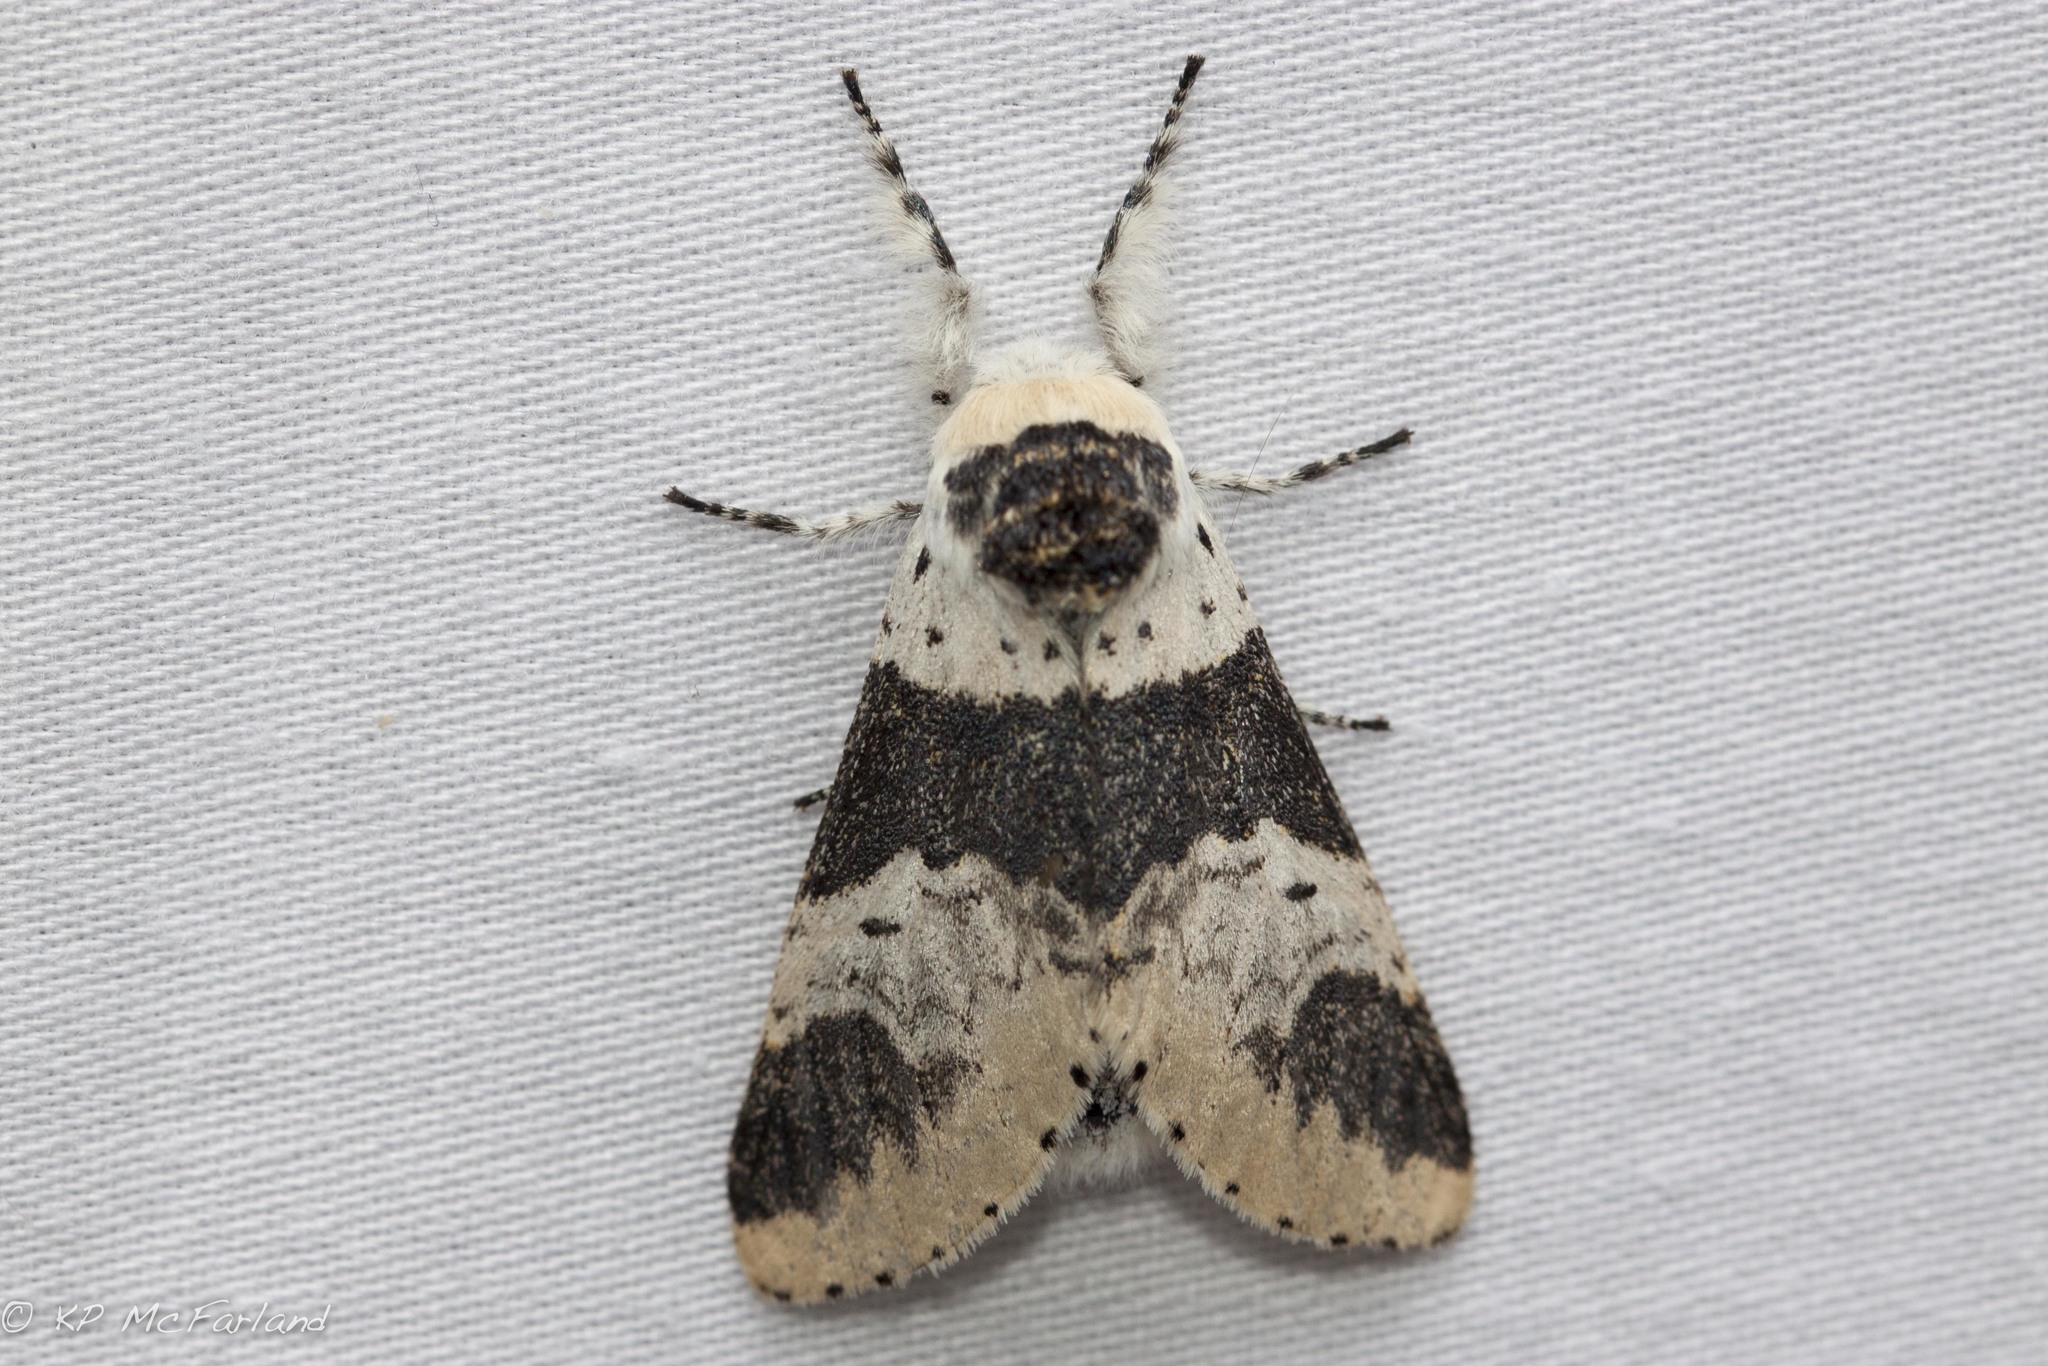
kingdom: Animalia
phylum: Arthropoda
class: Insecta
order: Lepidoptera
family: Notodontidae
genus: Furcula
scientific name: Furcula modesta
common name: Modest furcula moth
